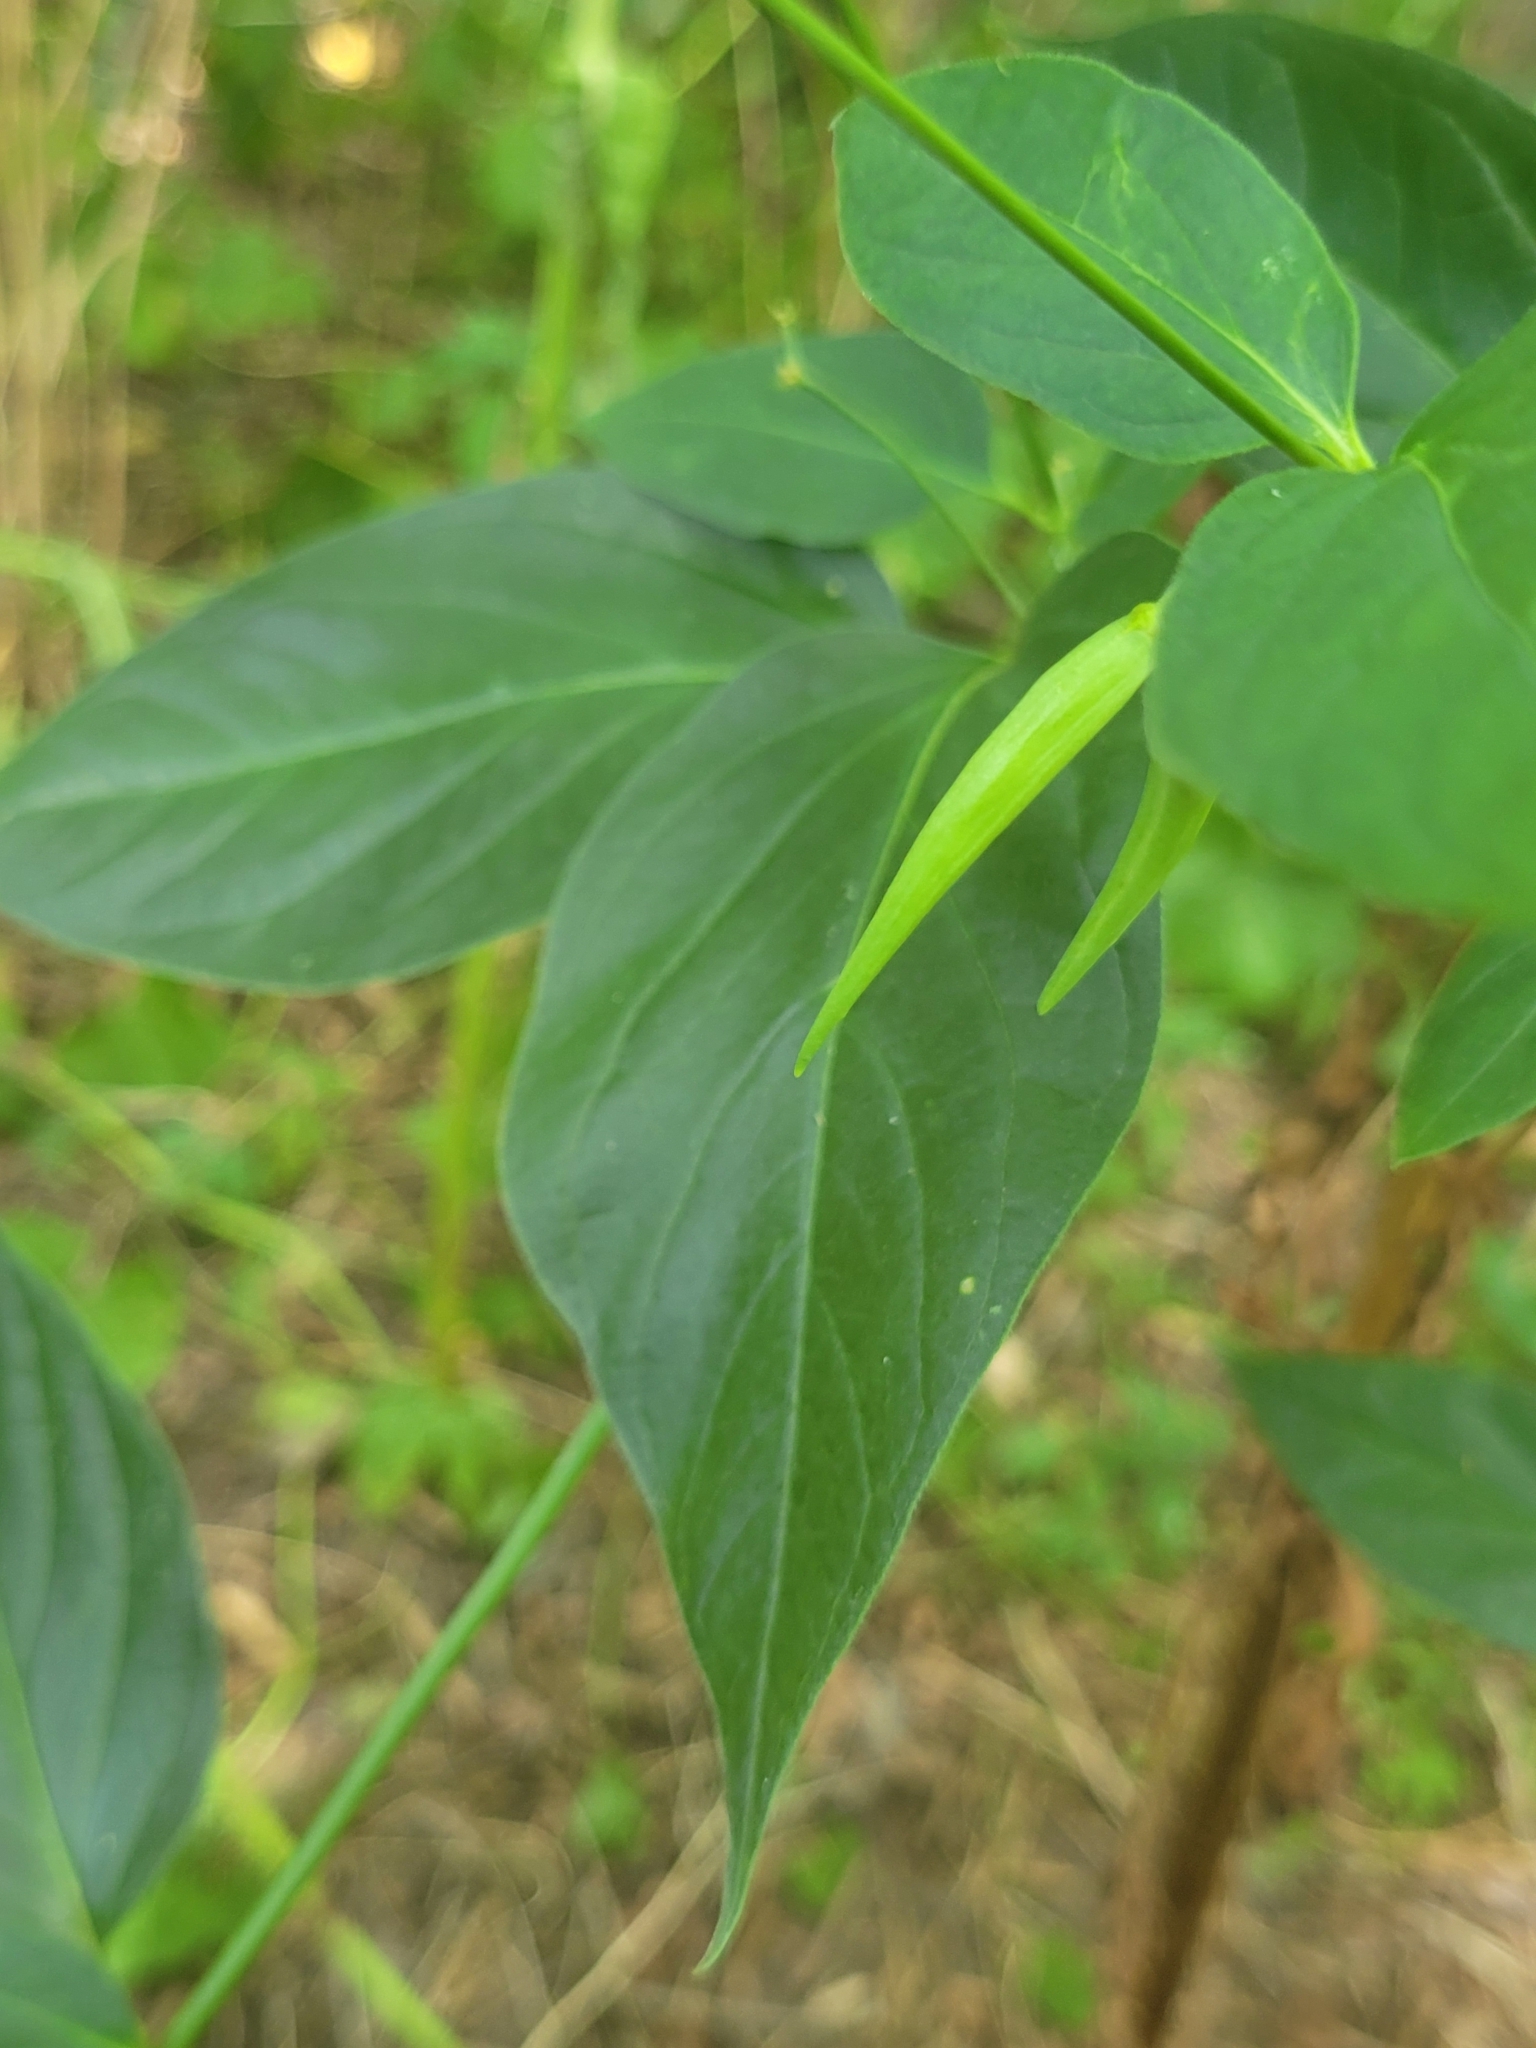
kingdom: Plantae
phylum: Tracheophyta
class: Magnoliopsida
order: Gentianales
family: Apocynaceae
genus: Vincetoxicum
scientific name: Vincetoxicum rossicum
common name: Dog-strangling vine
